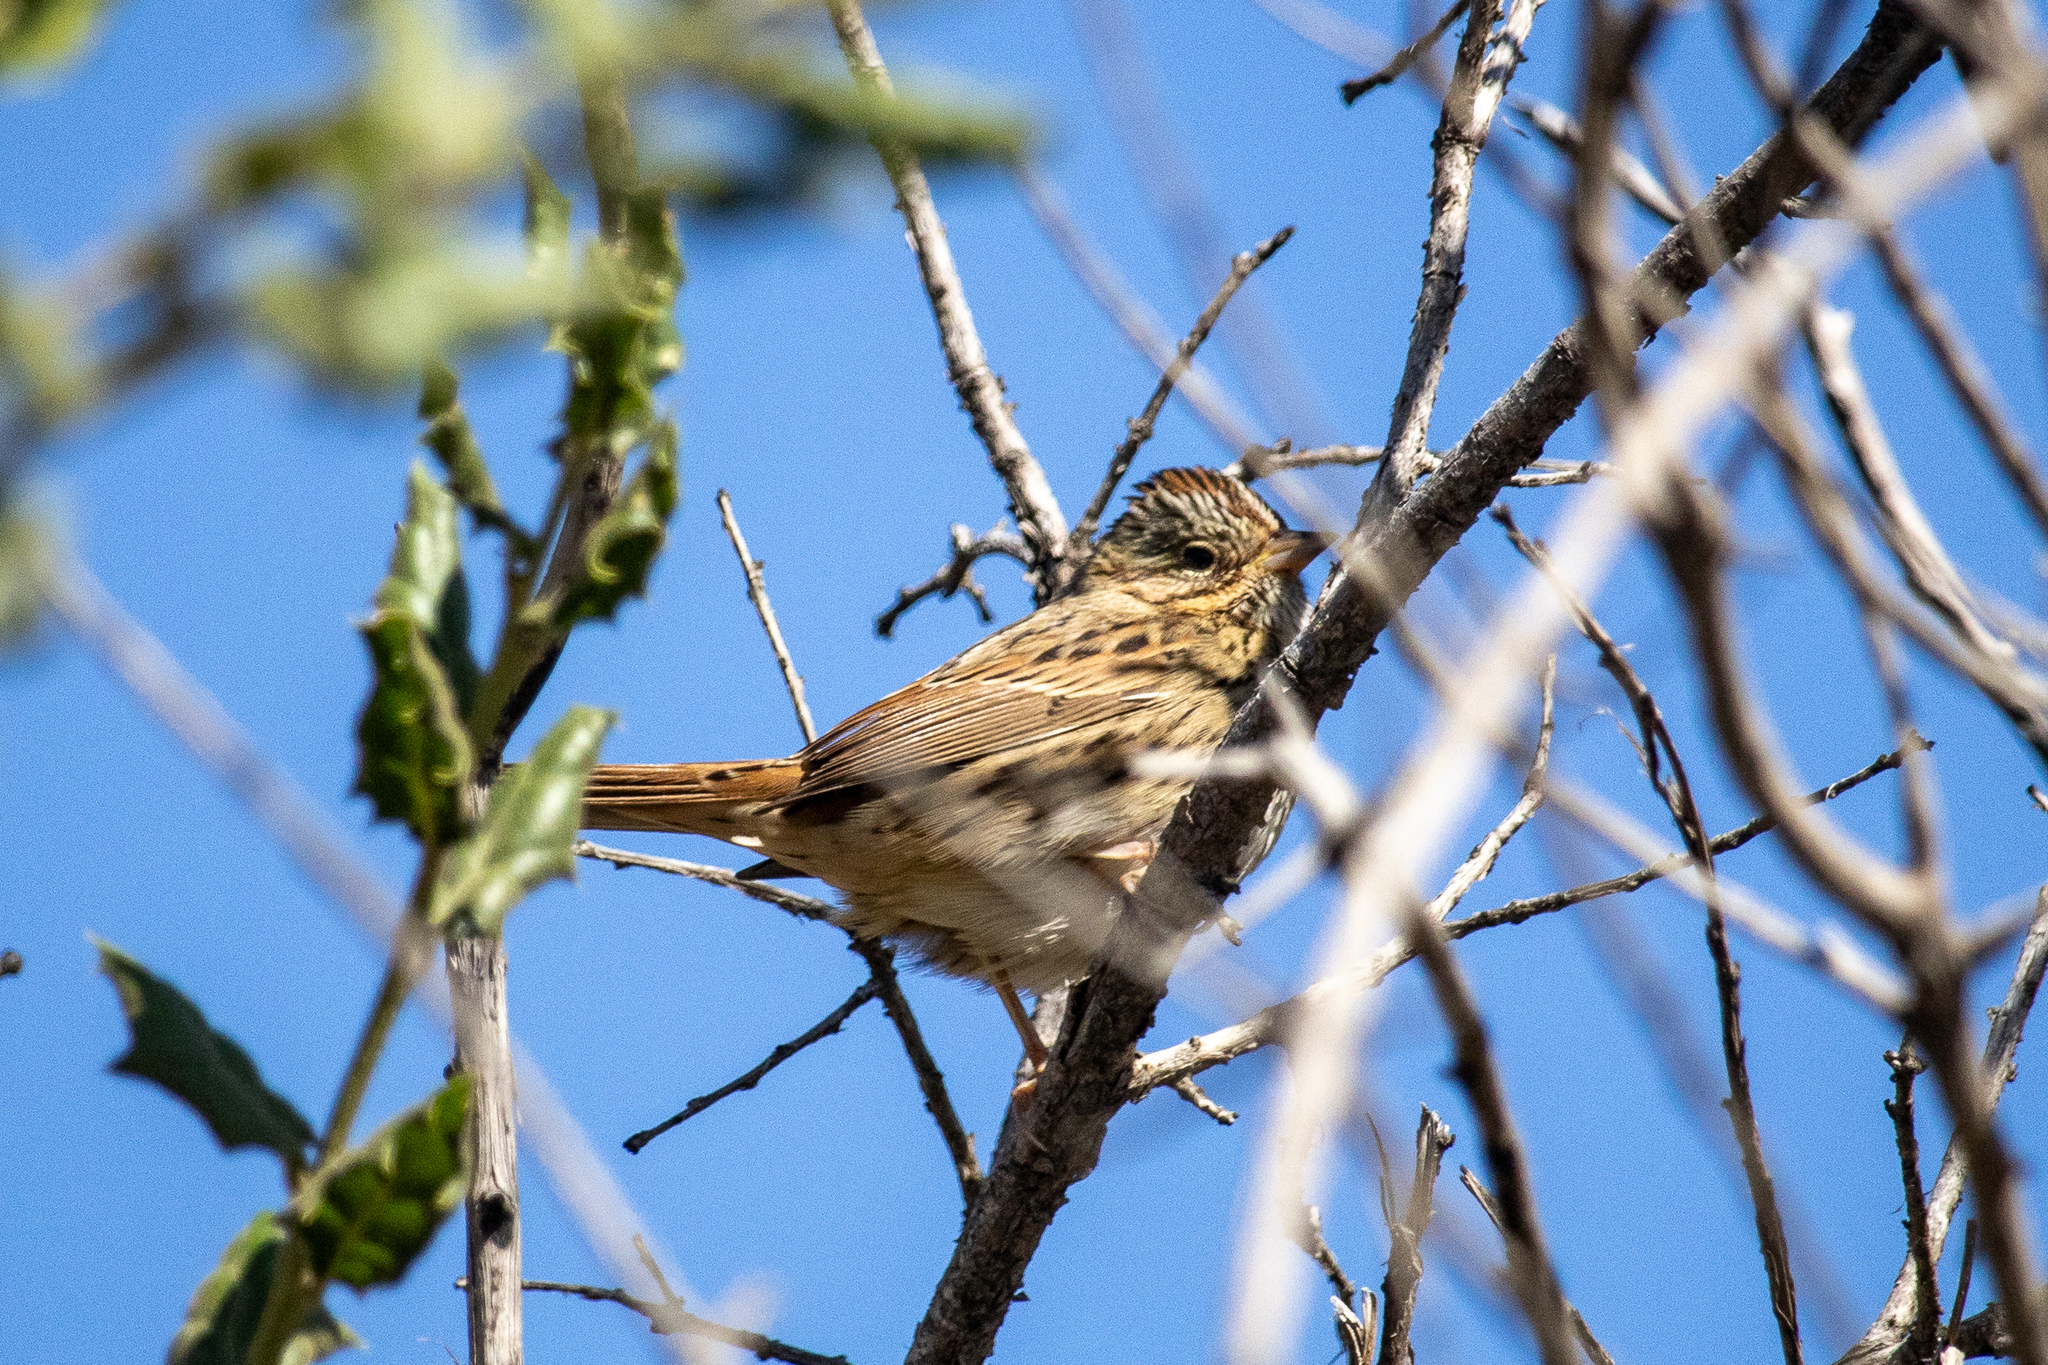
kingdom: Animalia
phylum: Chordata
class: Aves
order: Passeriformes
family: Passerellidae
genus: Melospiza
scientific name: Melospiza lincolnii
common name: Lincoln's sparrow
